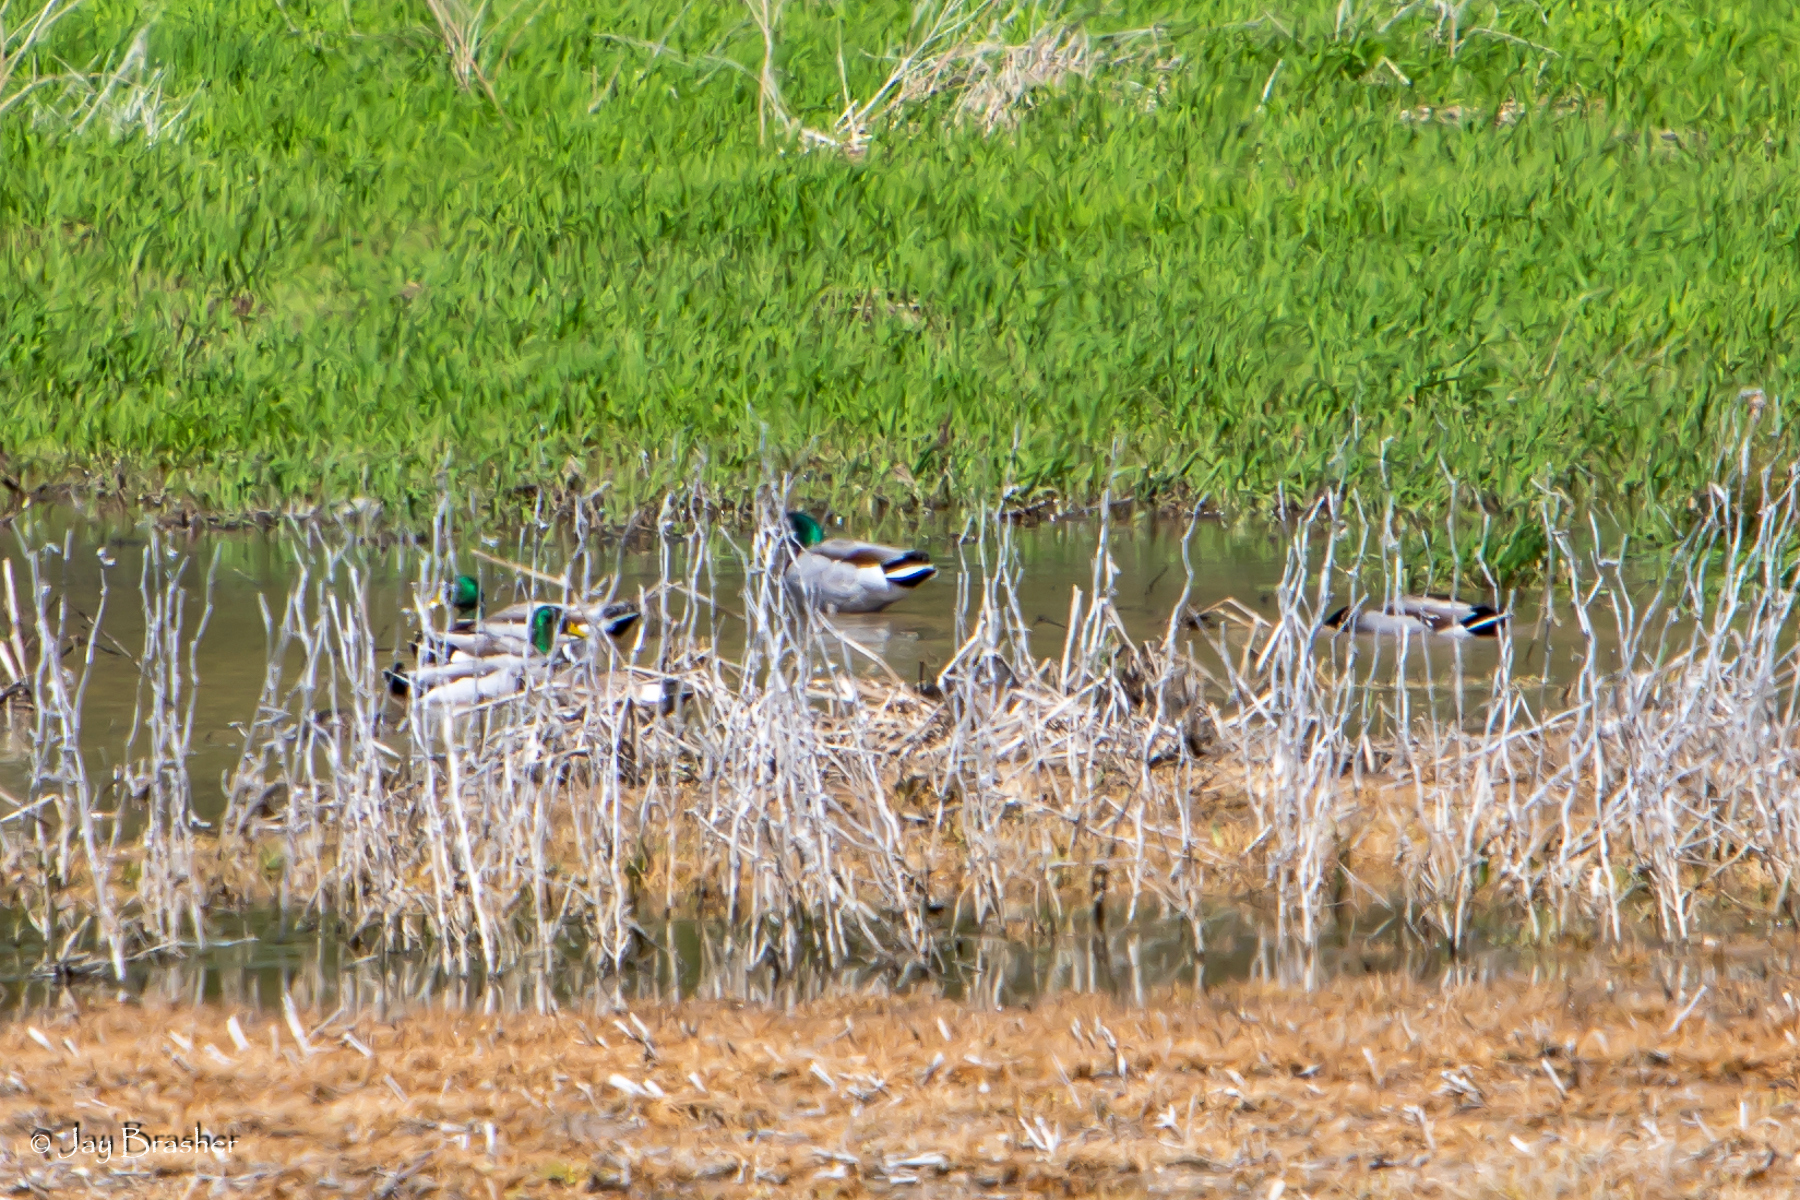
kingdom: Animalia
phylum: Chordata
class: Aves
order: Anseriformes
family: Anatidae
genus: Anas
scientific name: Anas platyrhynchos
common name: Mallard
